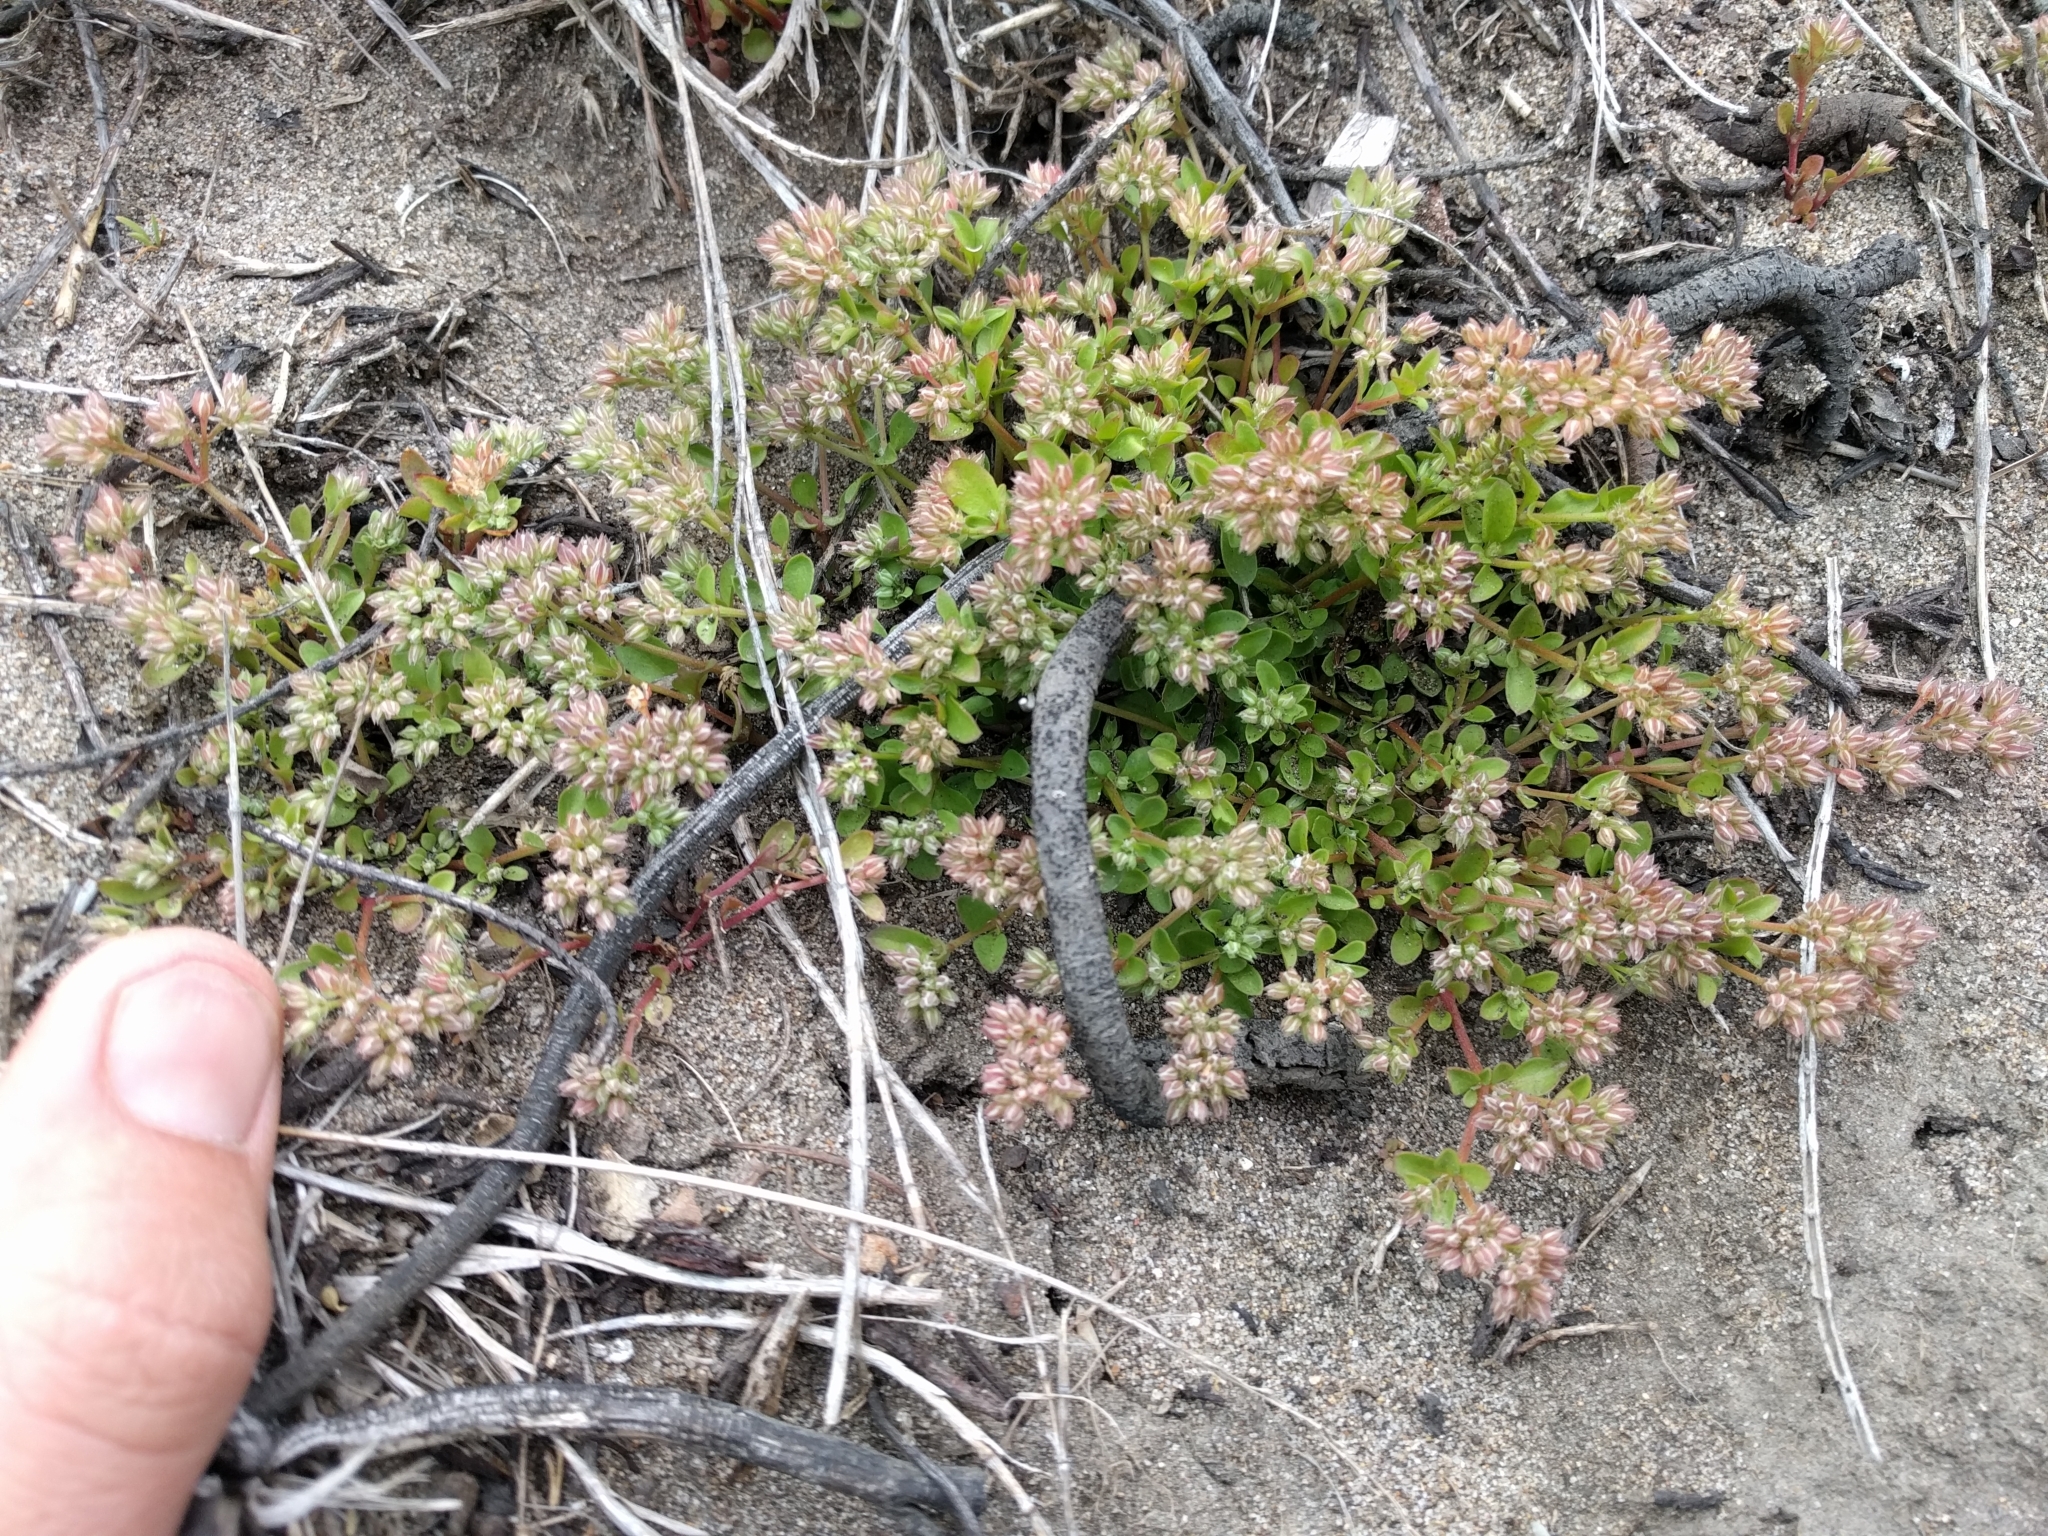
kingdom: Plantae
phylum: Tracheophyta
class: Magnoliopsida
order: Caryophyllales
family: Caryophyllaceae
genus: Polycarpon
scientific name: Polycarpon tetraphyllum
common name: Four-leaved all-seed
